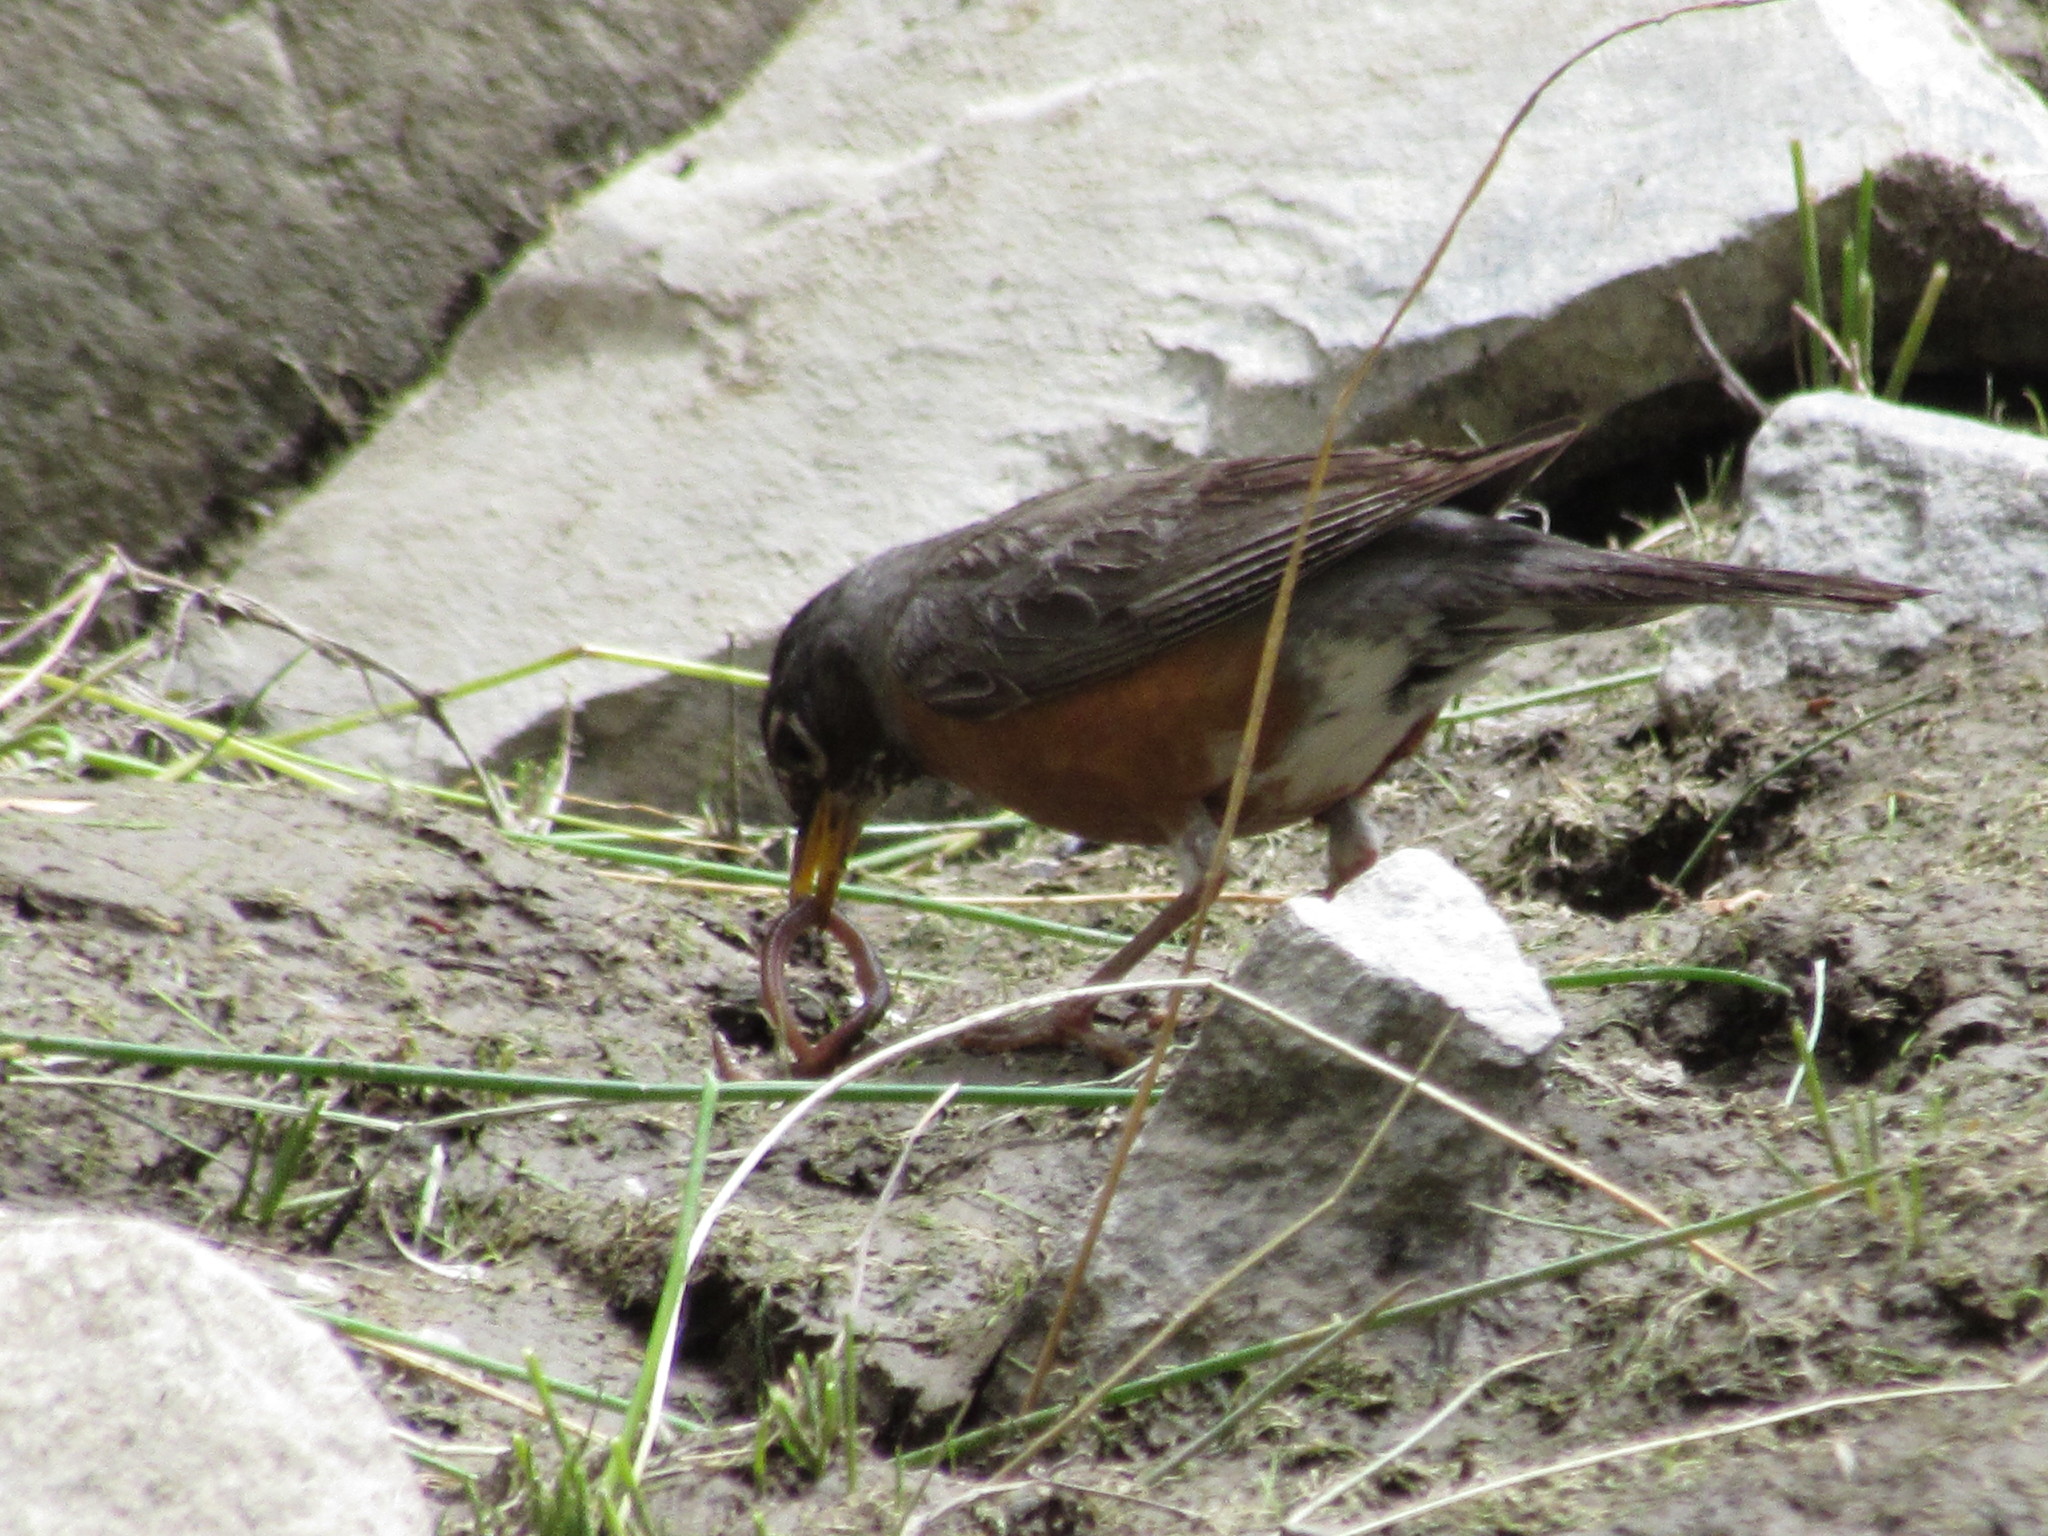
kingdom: Animalia
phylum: Chordata
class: Aves
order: Passeriformes
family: Turdidae
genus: Turdus
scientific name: Turdus migratorius
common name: American robin
